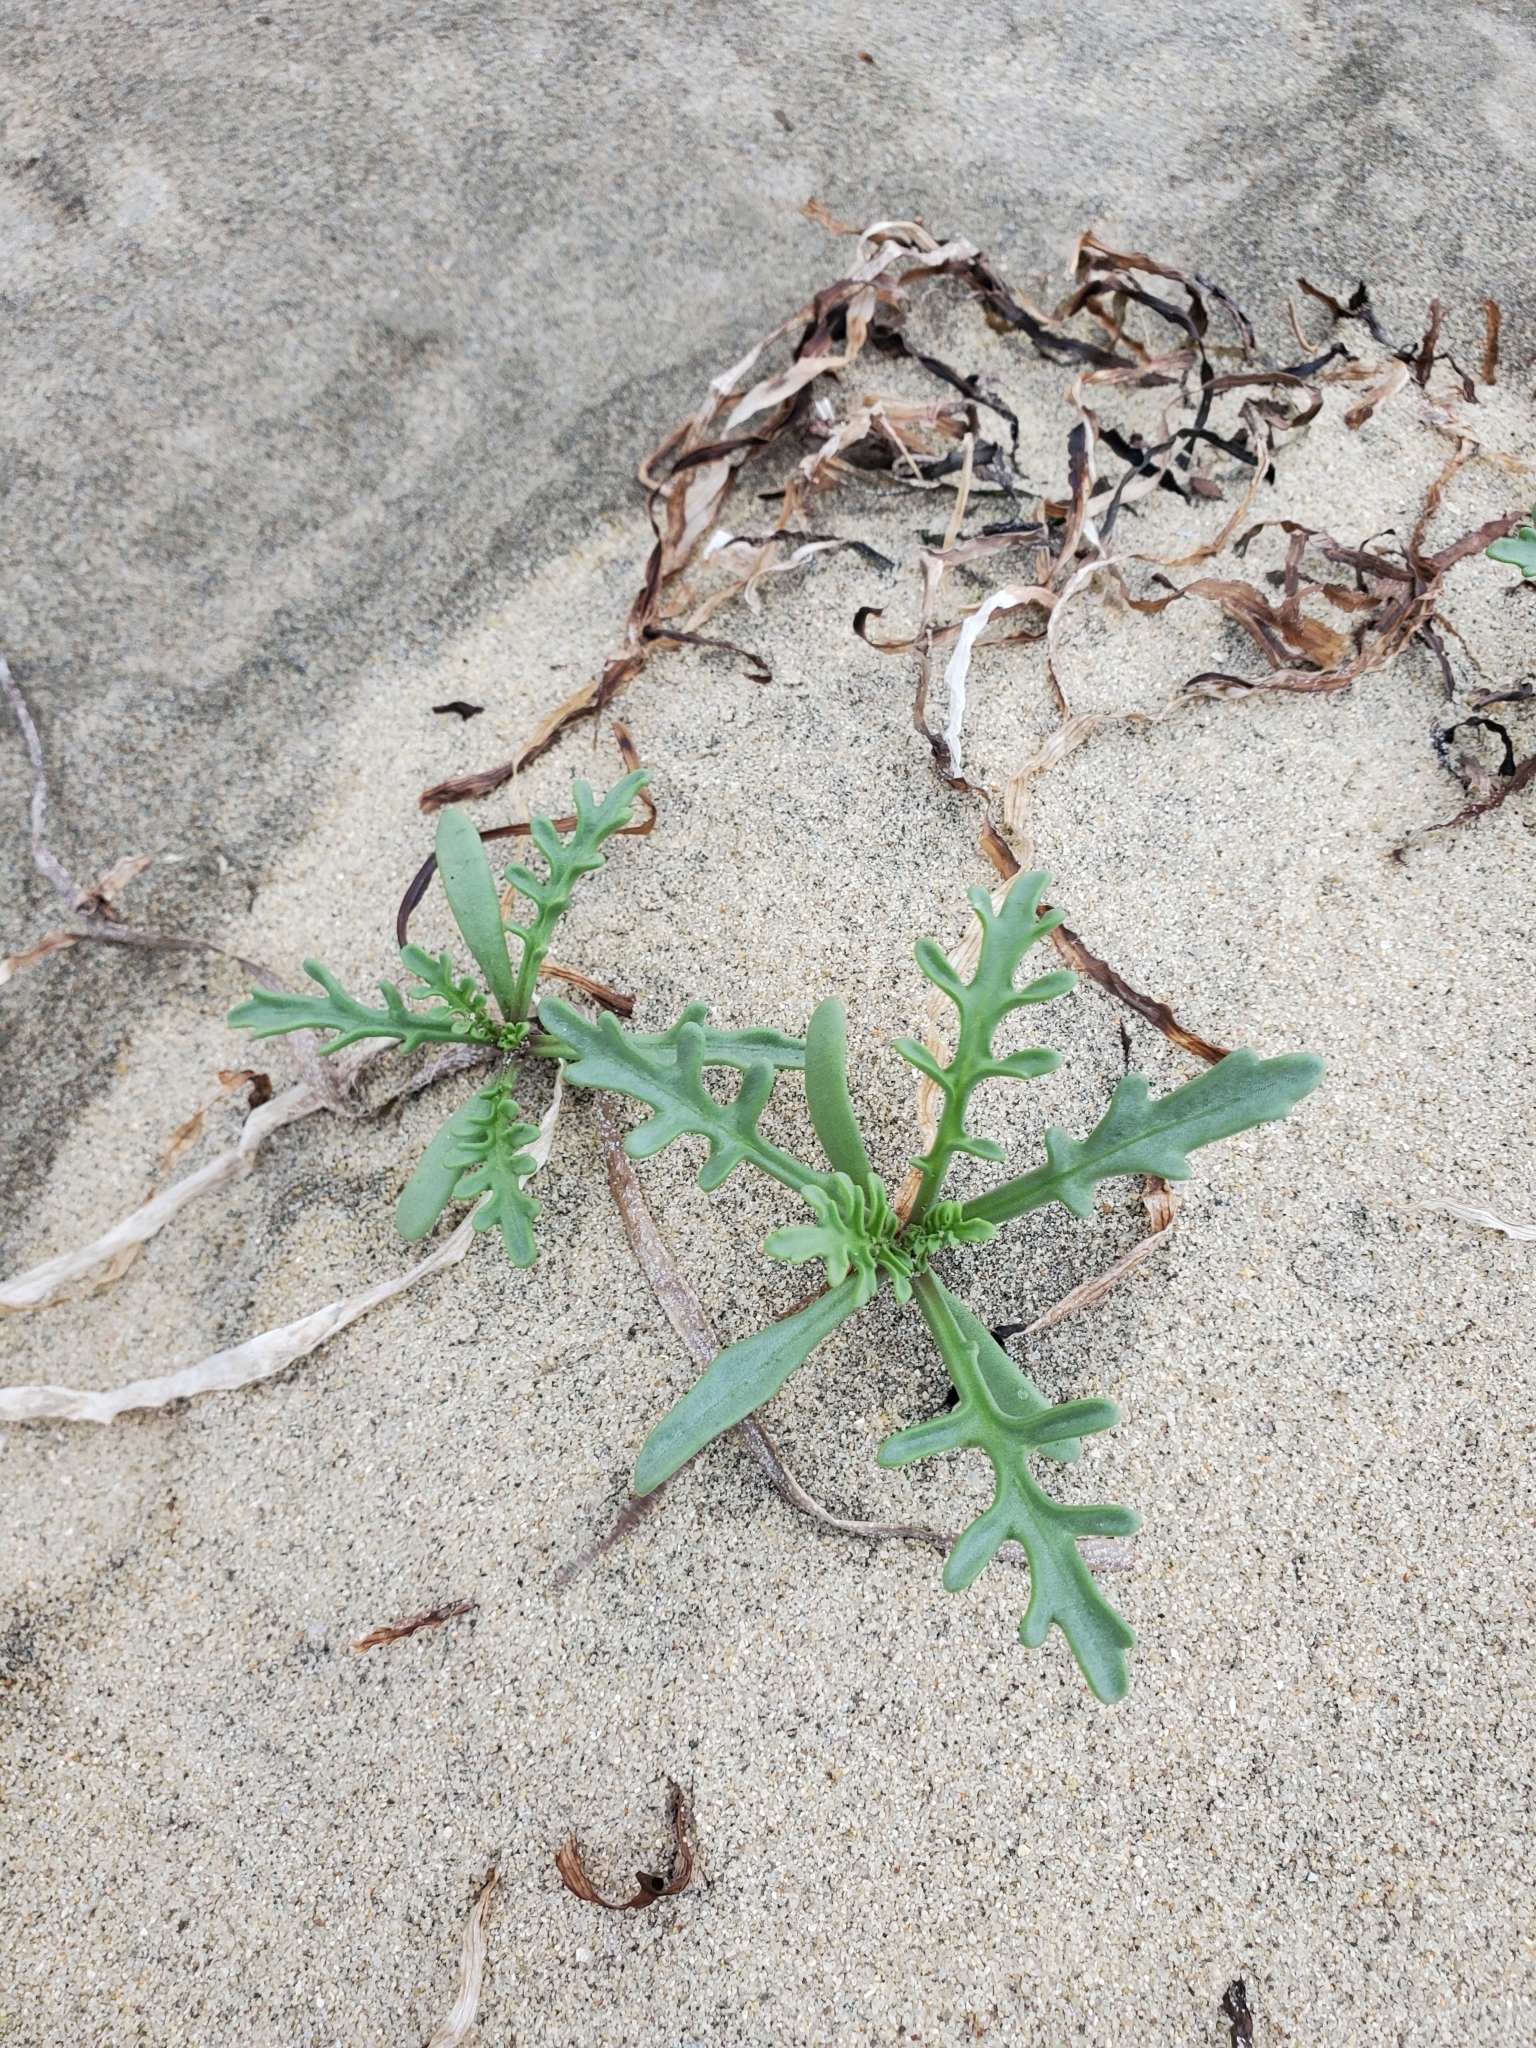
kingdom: Plantae
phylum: Tracheophyta
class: Magnoliopsida
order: Brassicales
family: Brassicaceae
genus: Cakile
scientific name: Cakile maritima
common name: Sea rocket
